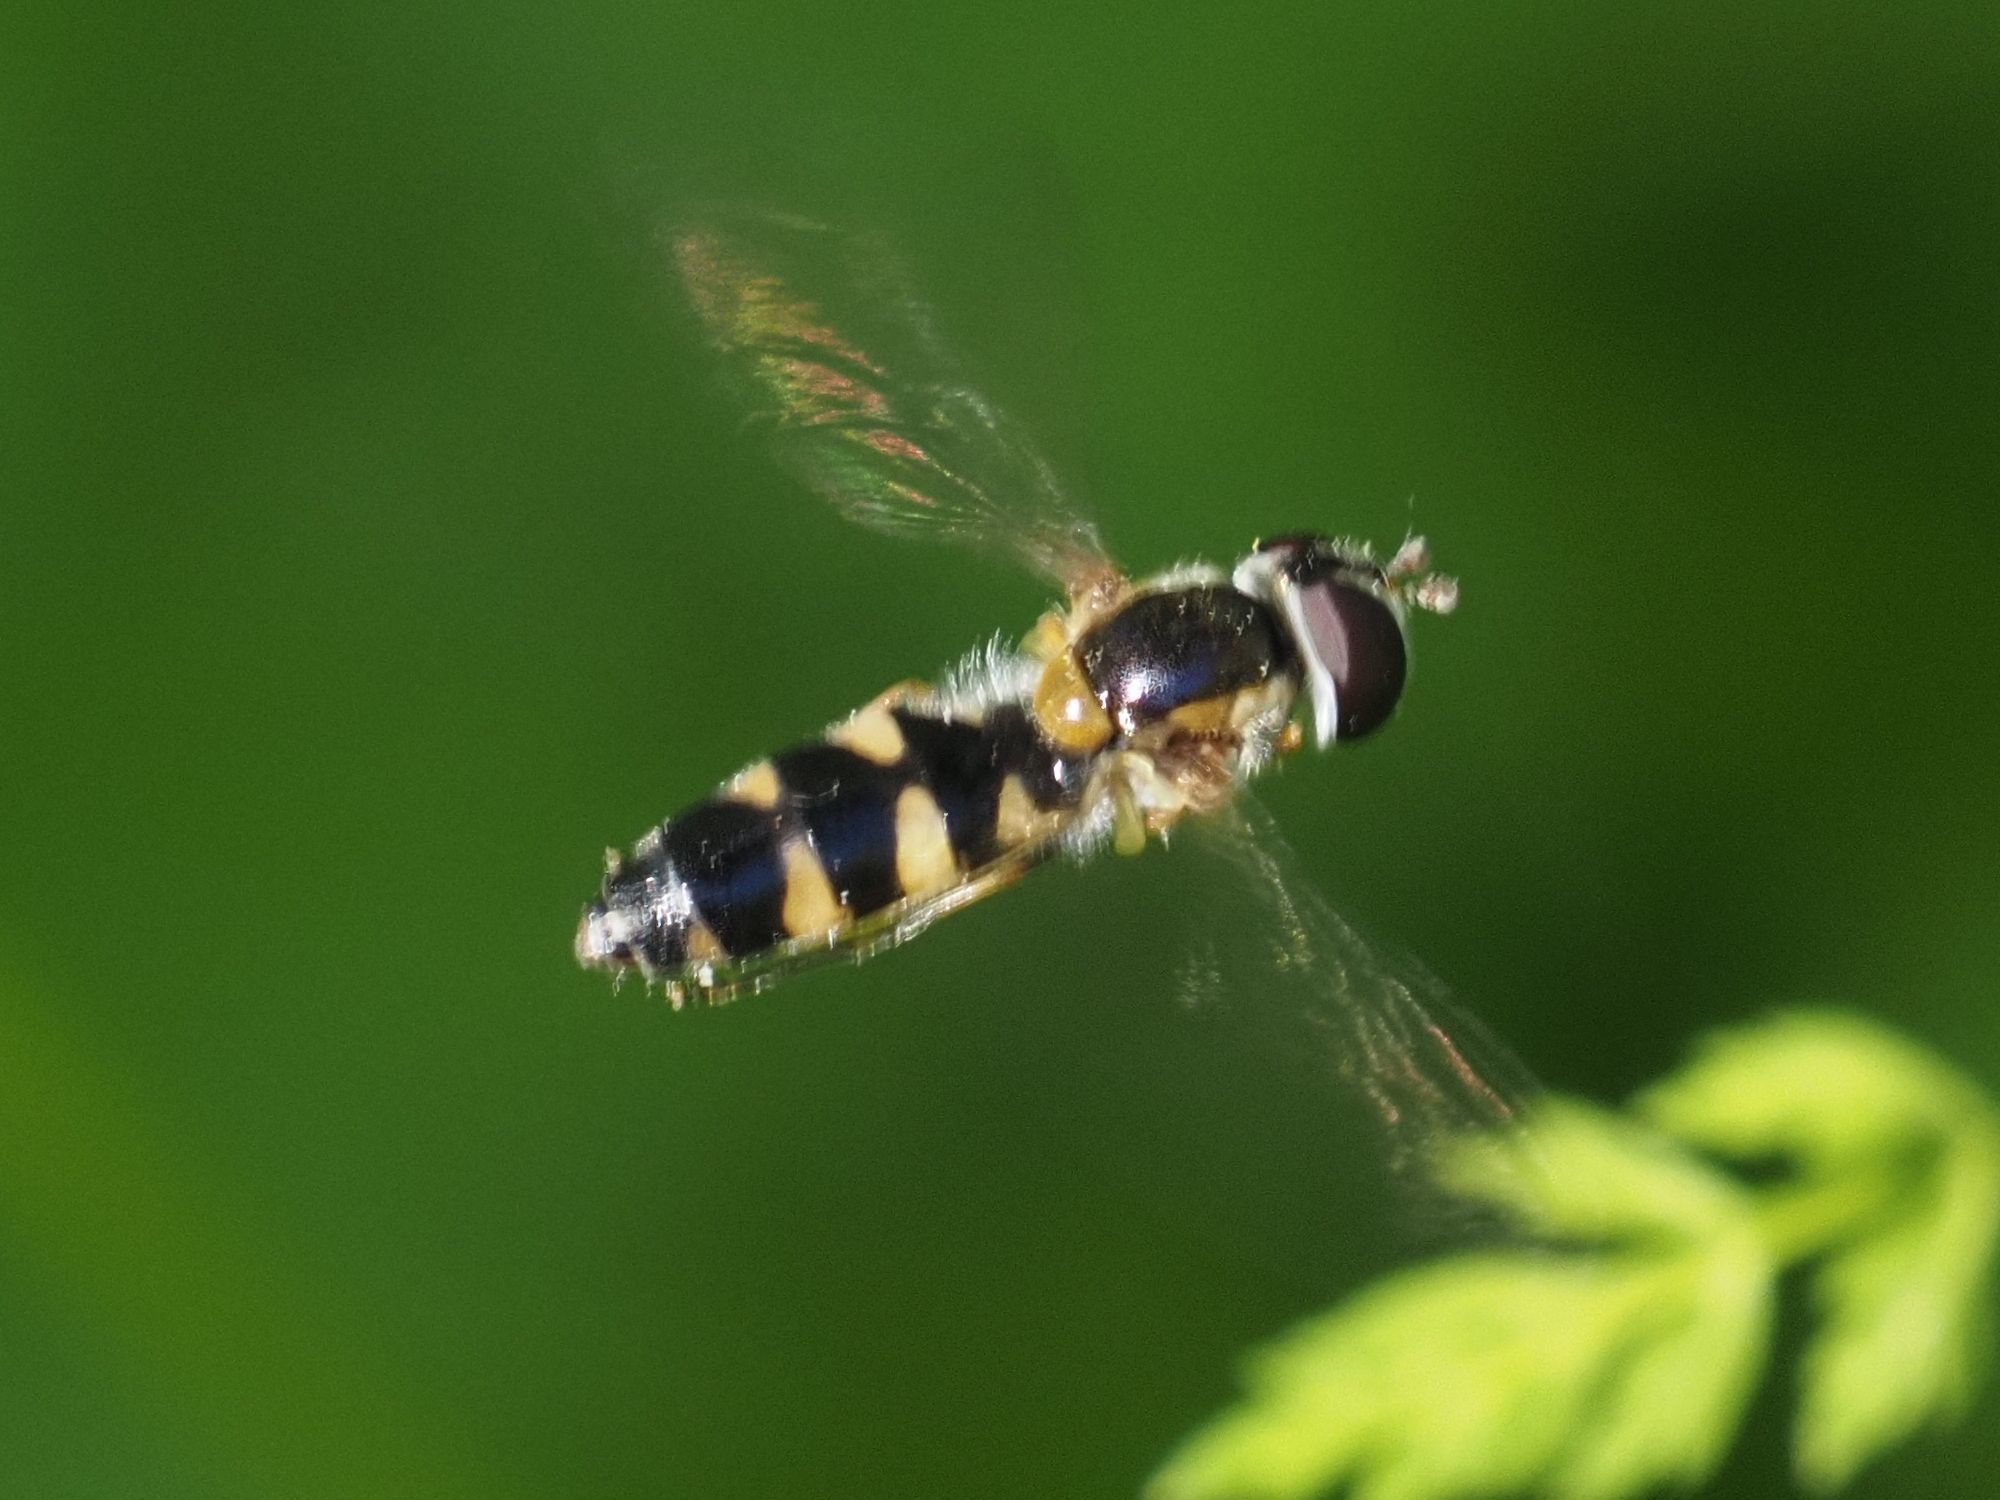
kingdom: Animalia
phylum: Arthropoda
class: Insecta
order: Diptera
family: Syrphidae
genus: Meligramma
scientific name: Meligramma triangulifera
